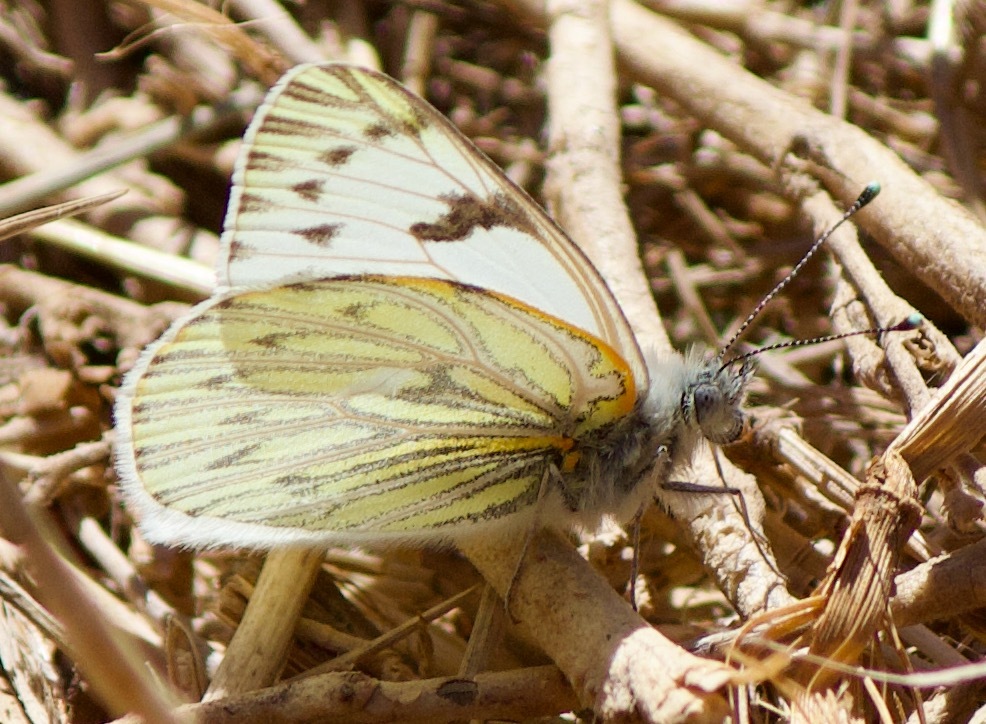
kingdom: Animalia
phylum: Arthropoda
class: Insecta
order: Lepidoptera
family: Pieridae
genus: Tatochila
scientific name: Tatochila mercedis
